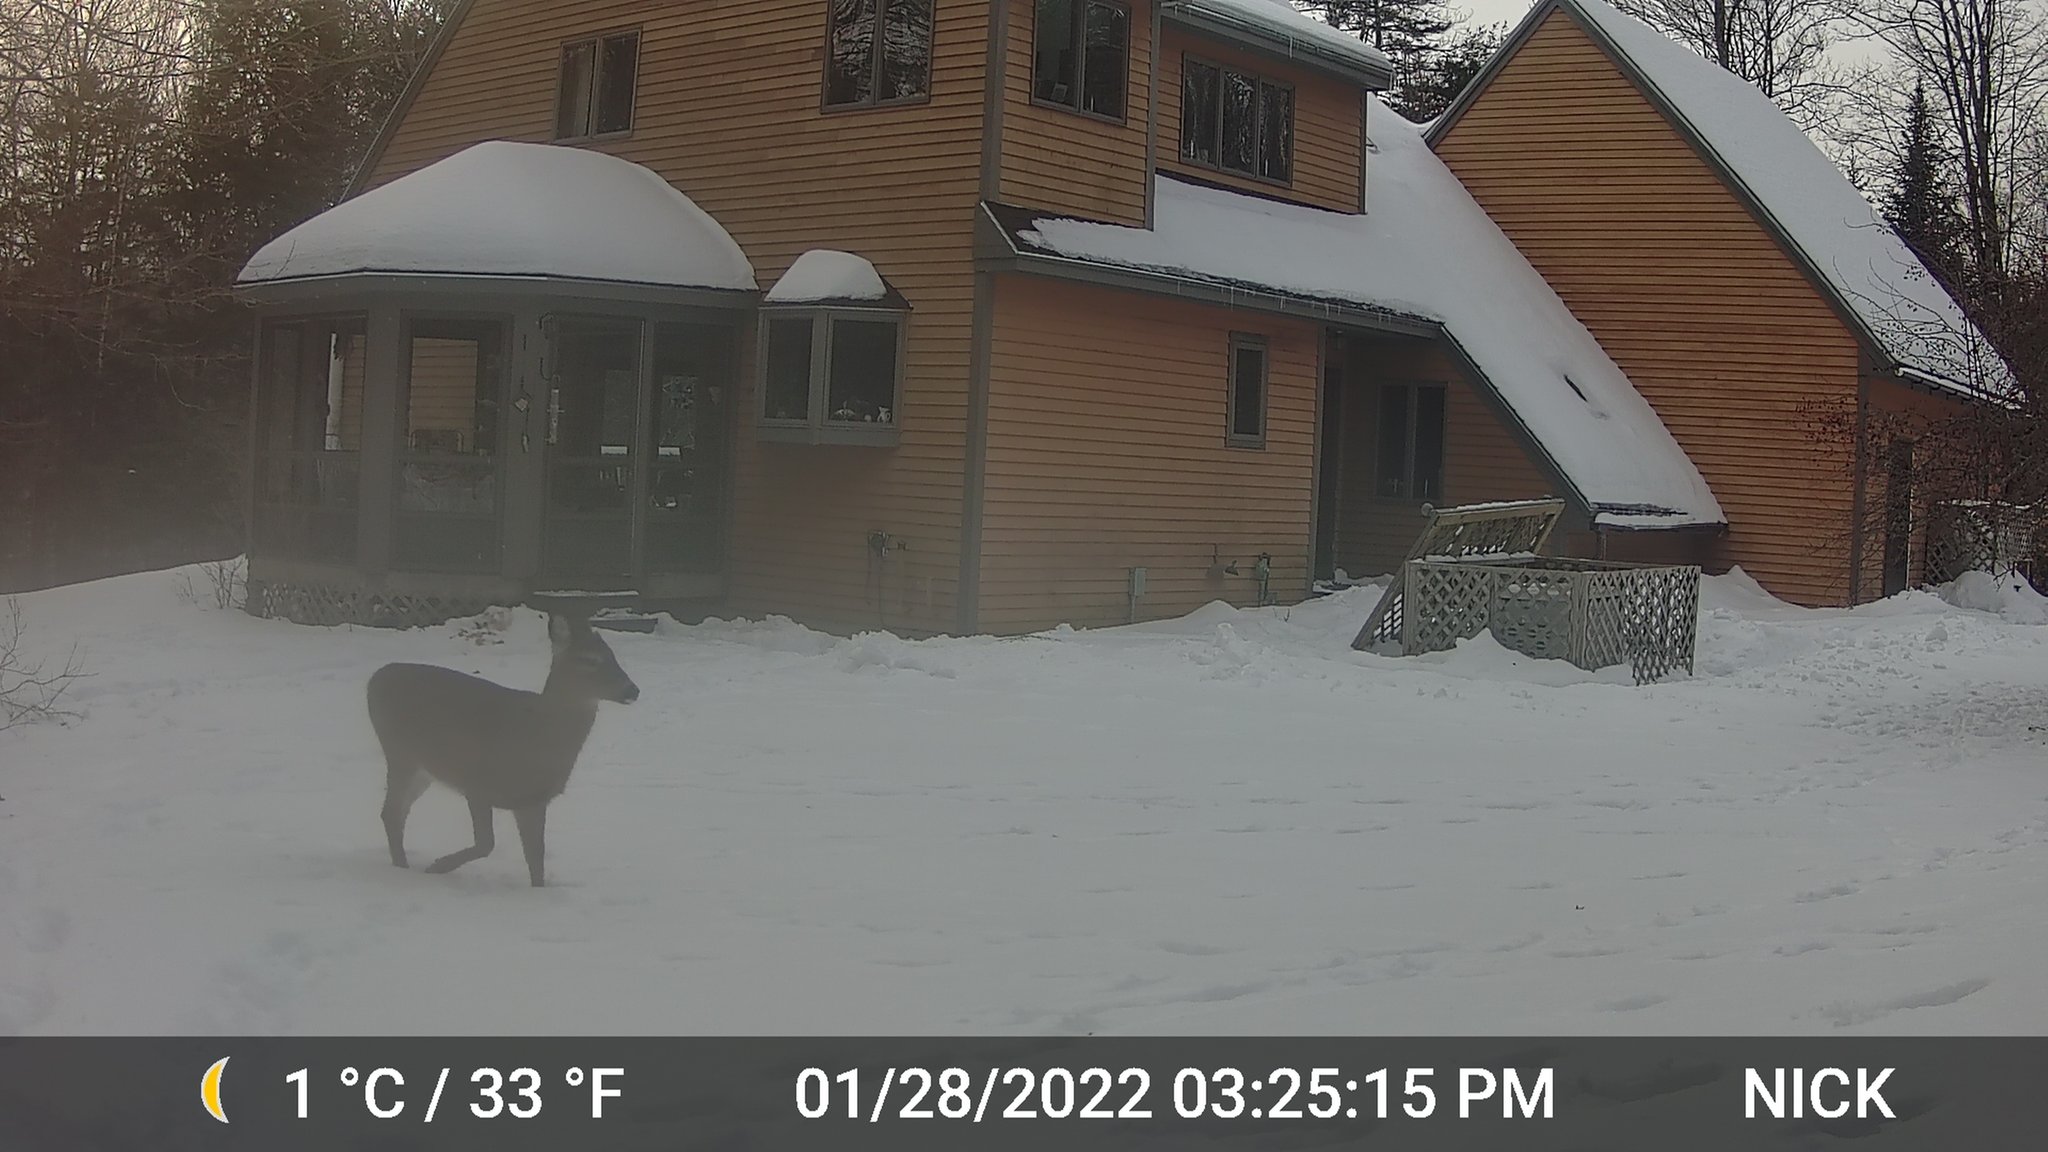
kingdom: Animalia
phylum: Chordata
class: Mammalia
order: Artiodactyla
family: Cervidae
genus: Odocoileus
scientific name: Odocoileus virginianus
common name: White-tailed deer
